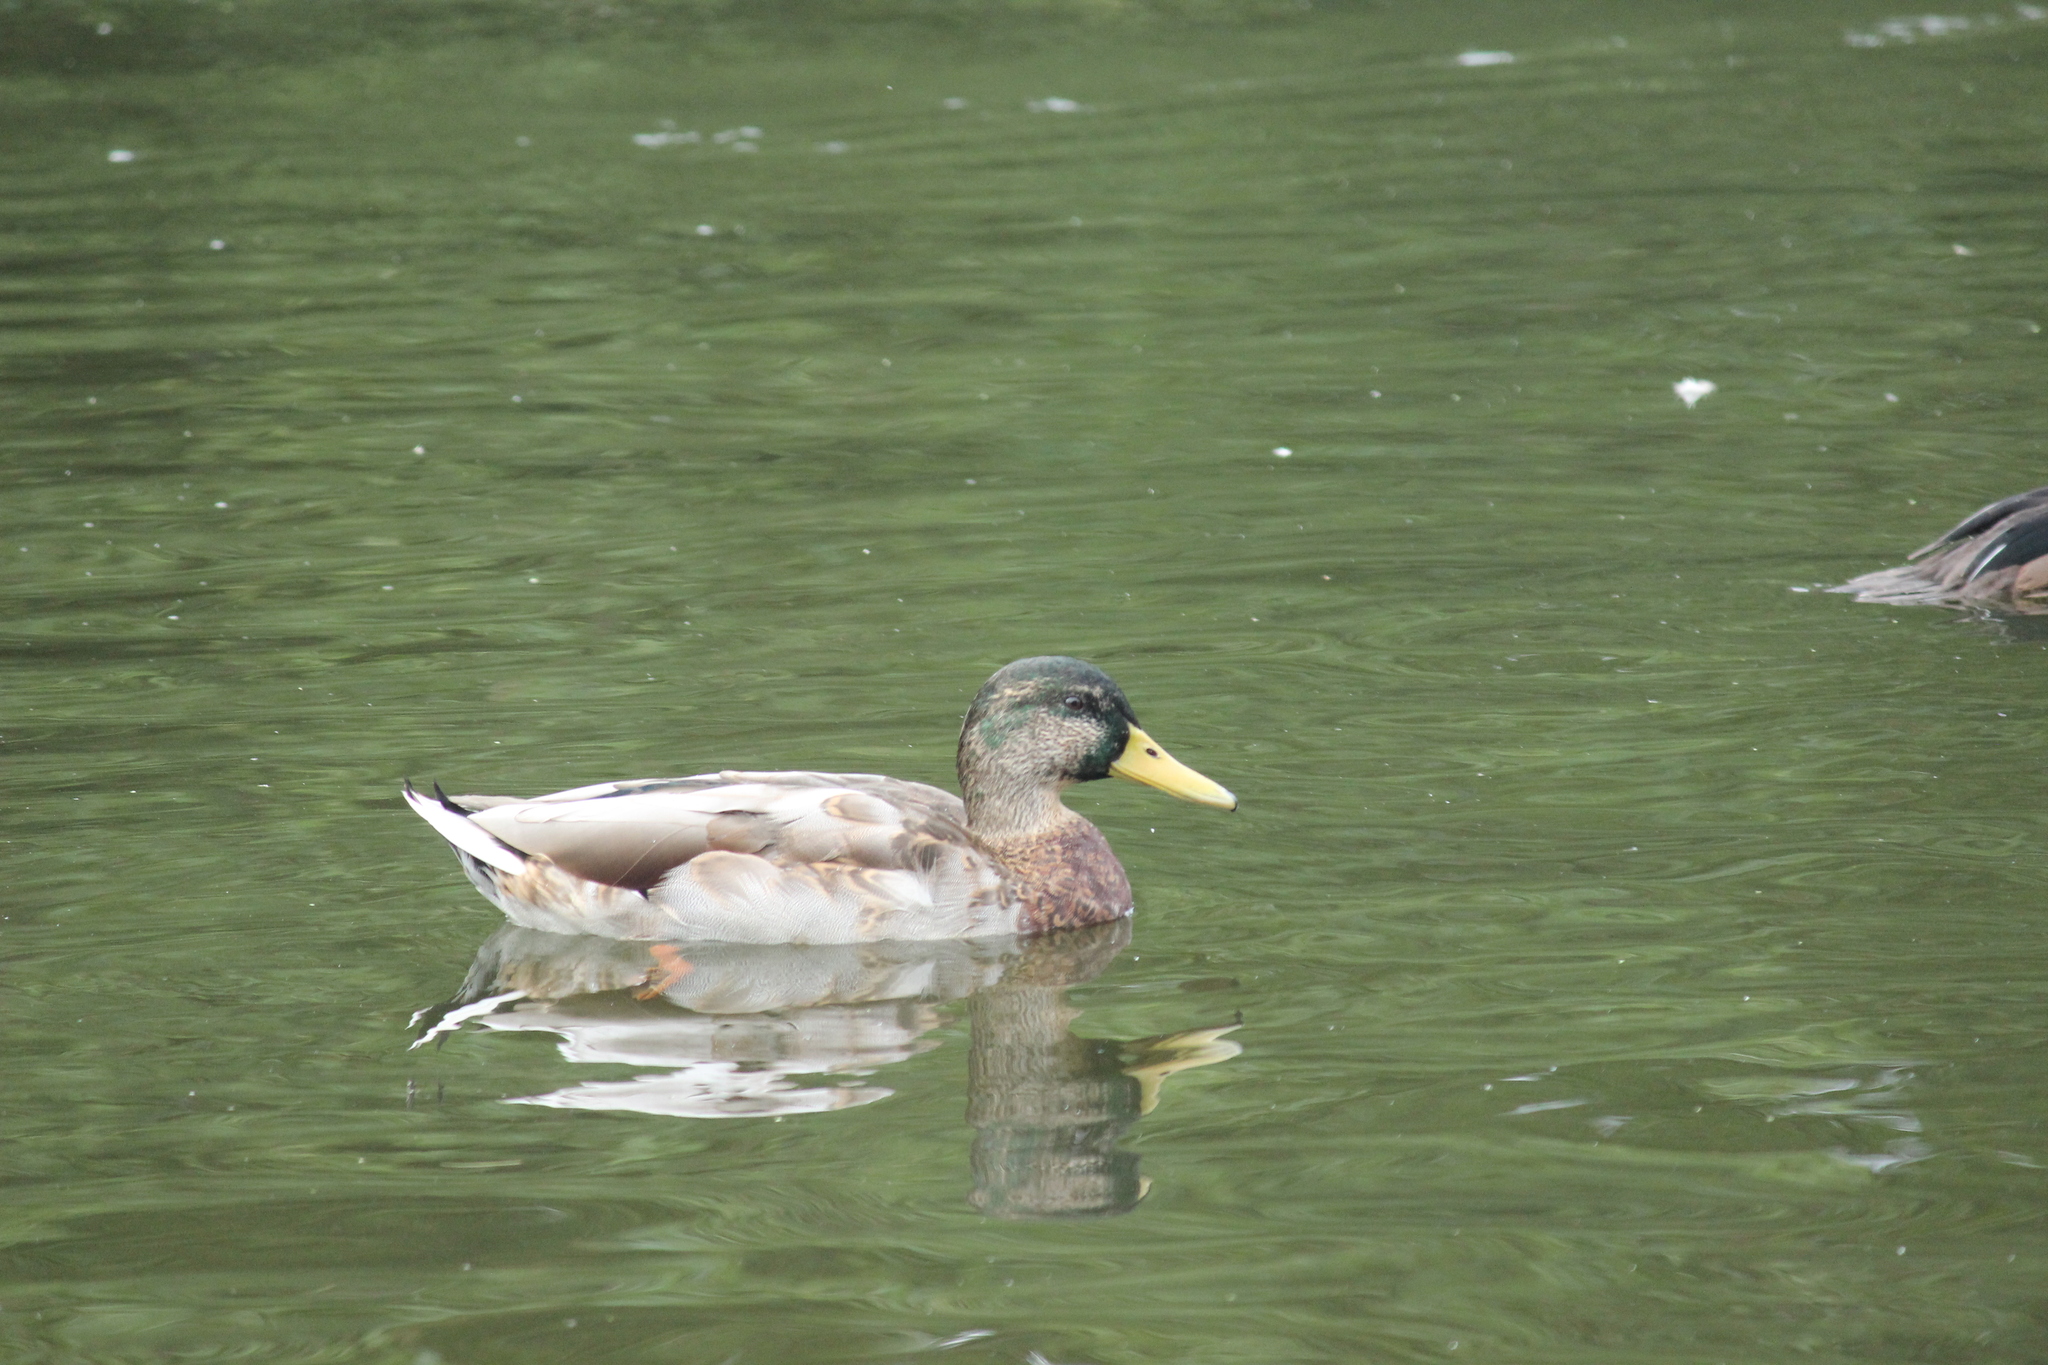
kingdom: Animalia
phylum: Chordata
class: Aves
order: Anseriformes
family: Anatidae
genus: Anas
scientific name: Anas platyrhynchos
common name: Mallard
